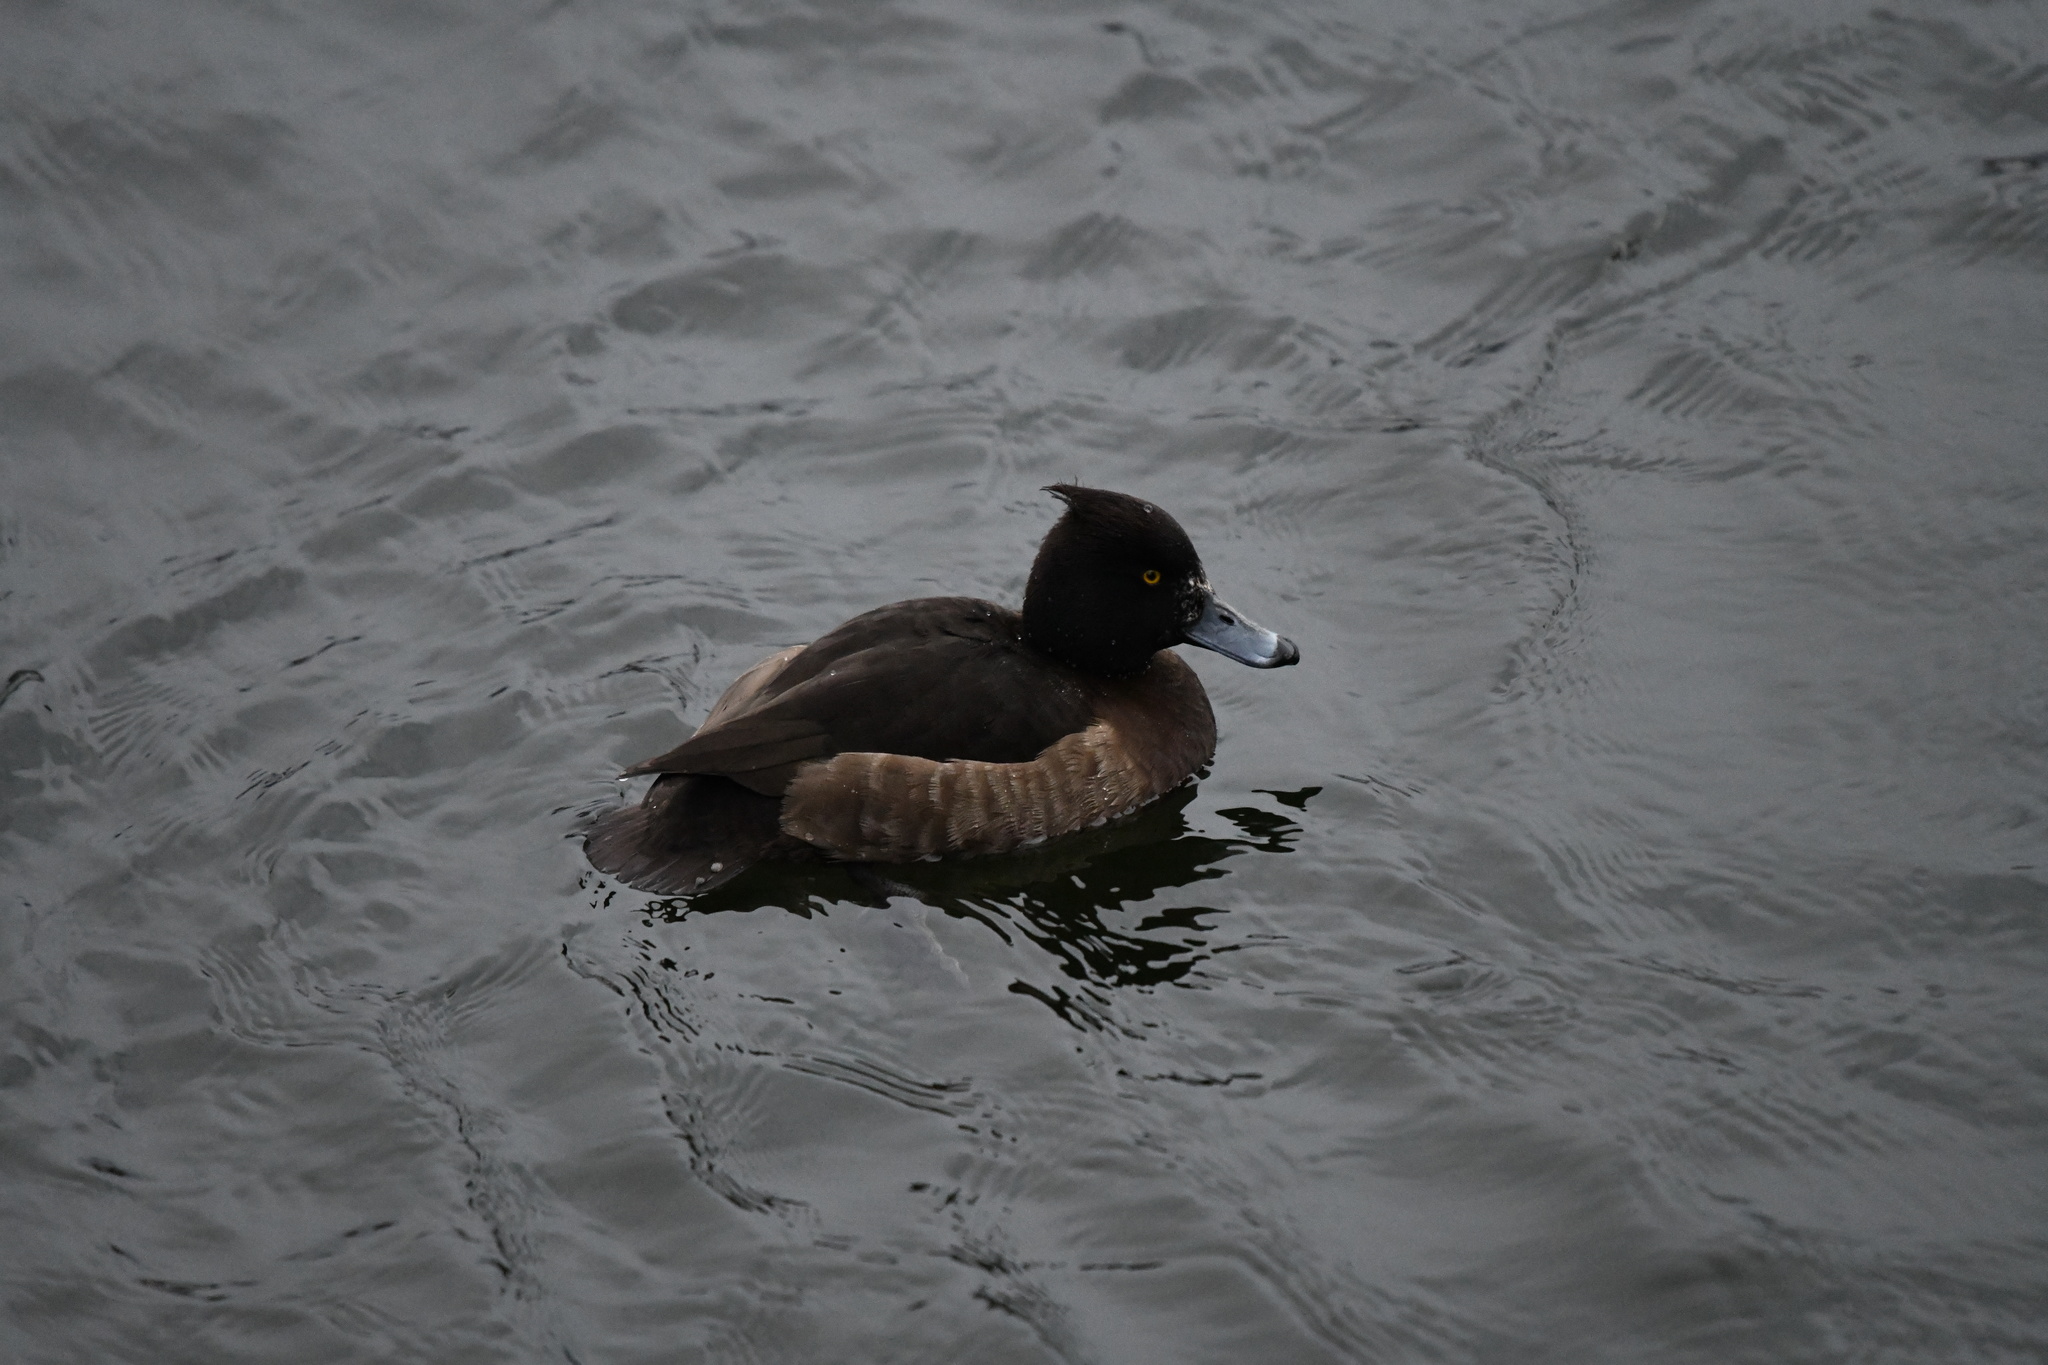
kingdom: Animalia
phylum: Chordata
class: Aves
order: Anseriformes
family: Anatidae
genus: Aythya
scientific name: Aythya fuligula
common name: Tufted duck
